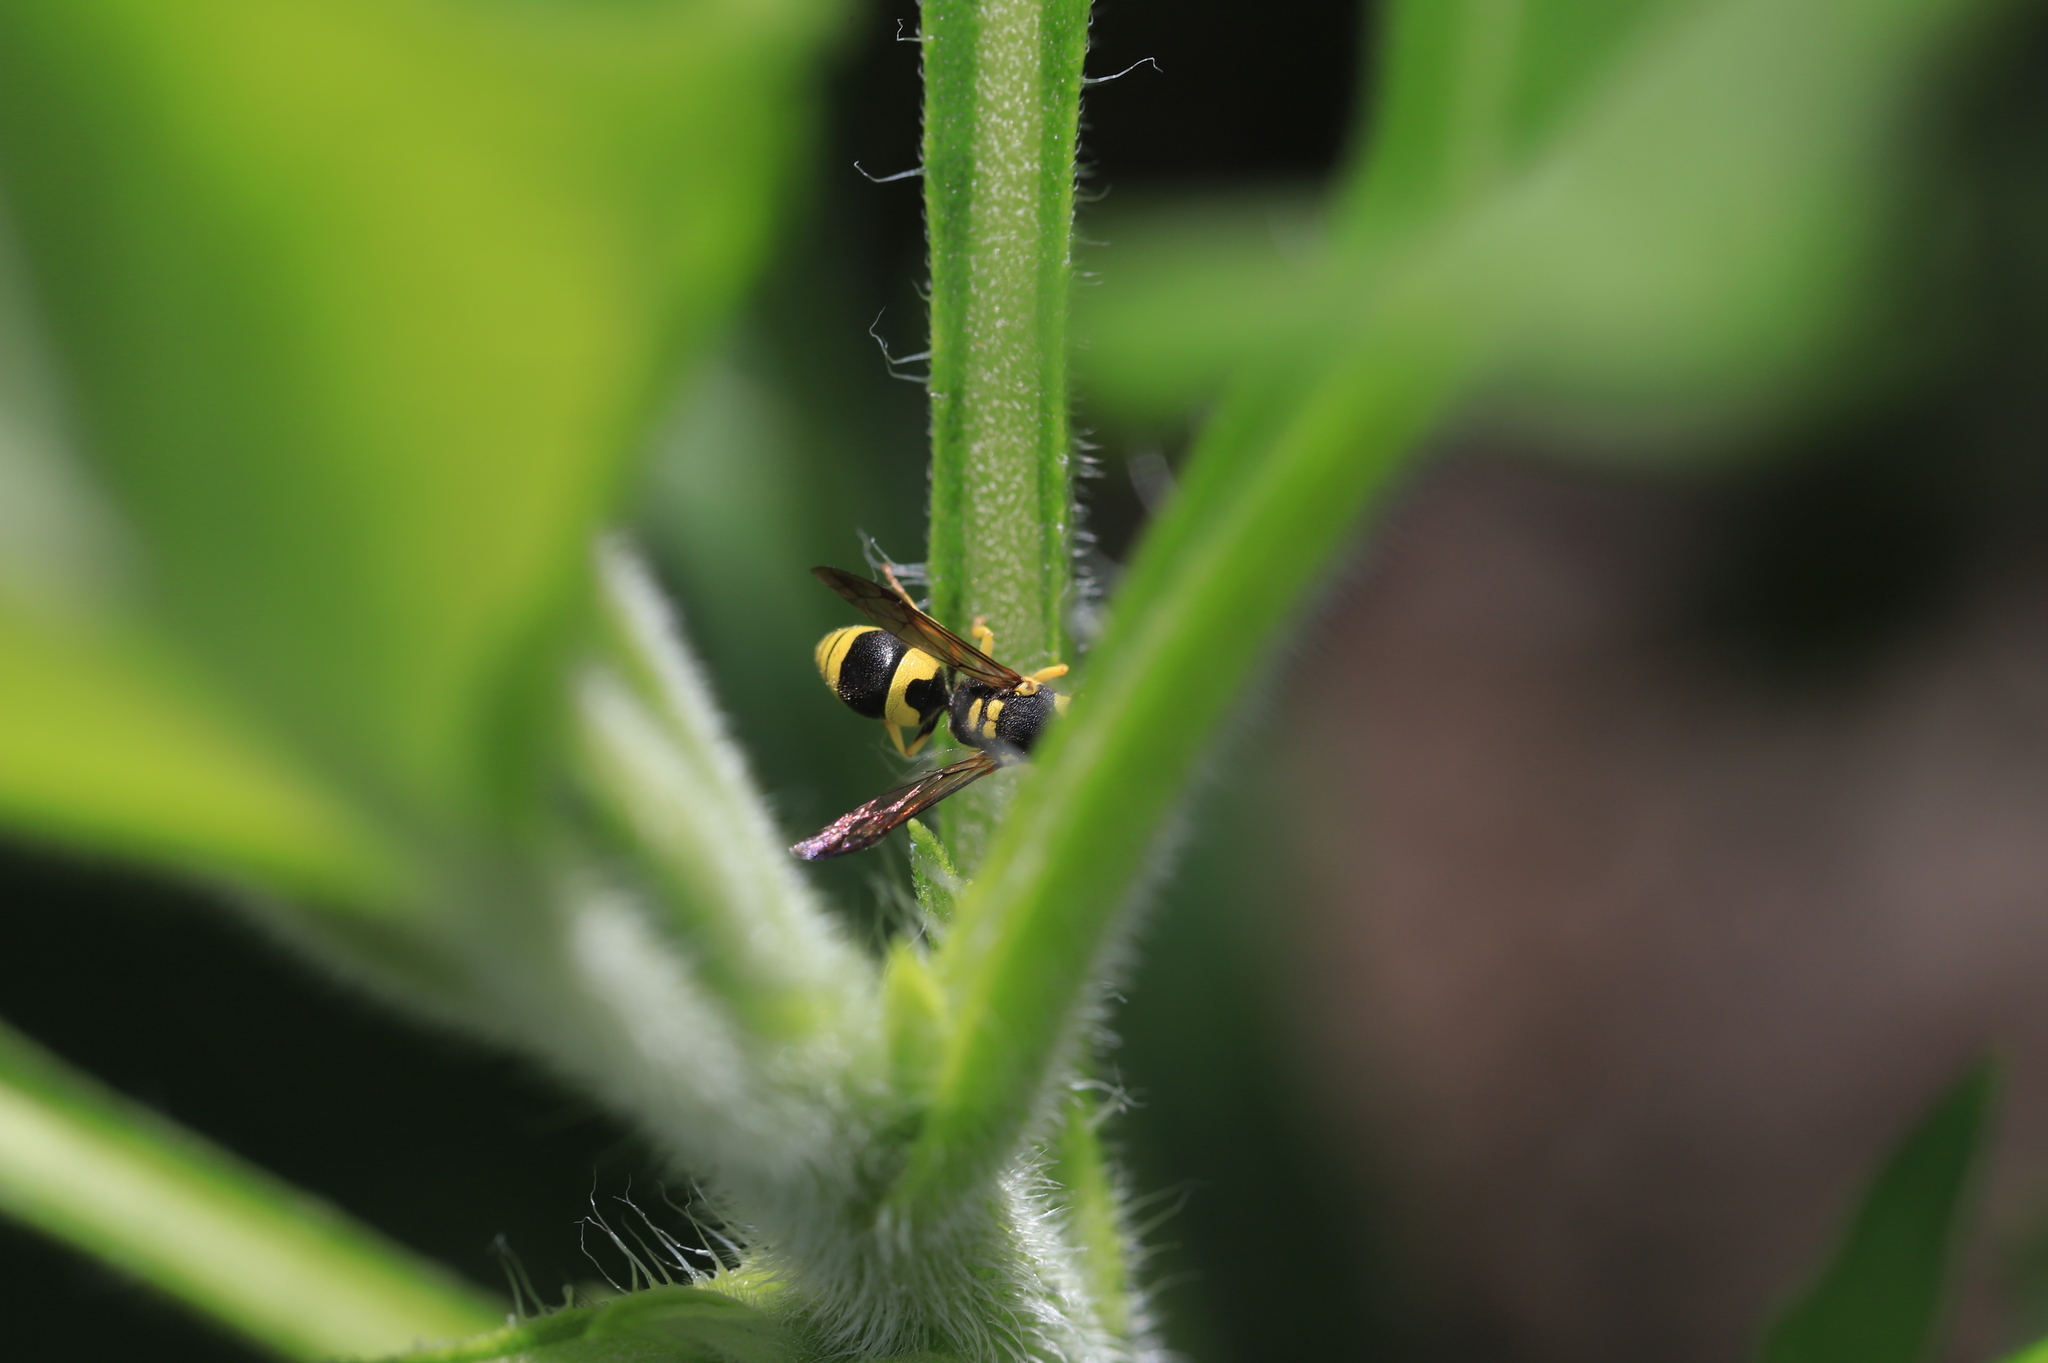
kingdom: Animalia
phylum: Arthropoda
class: Insecta
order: Hymenoptera
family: Vespidae
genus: Ancistrocerus
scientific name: Ancistrocerus gazella
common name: European tube wasp
